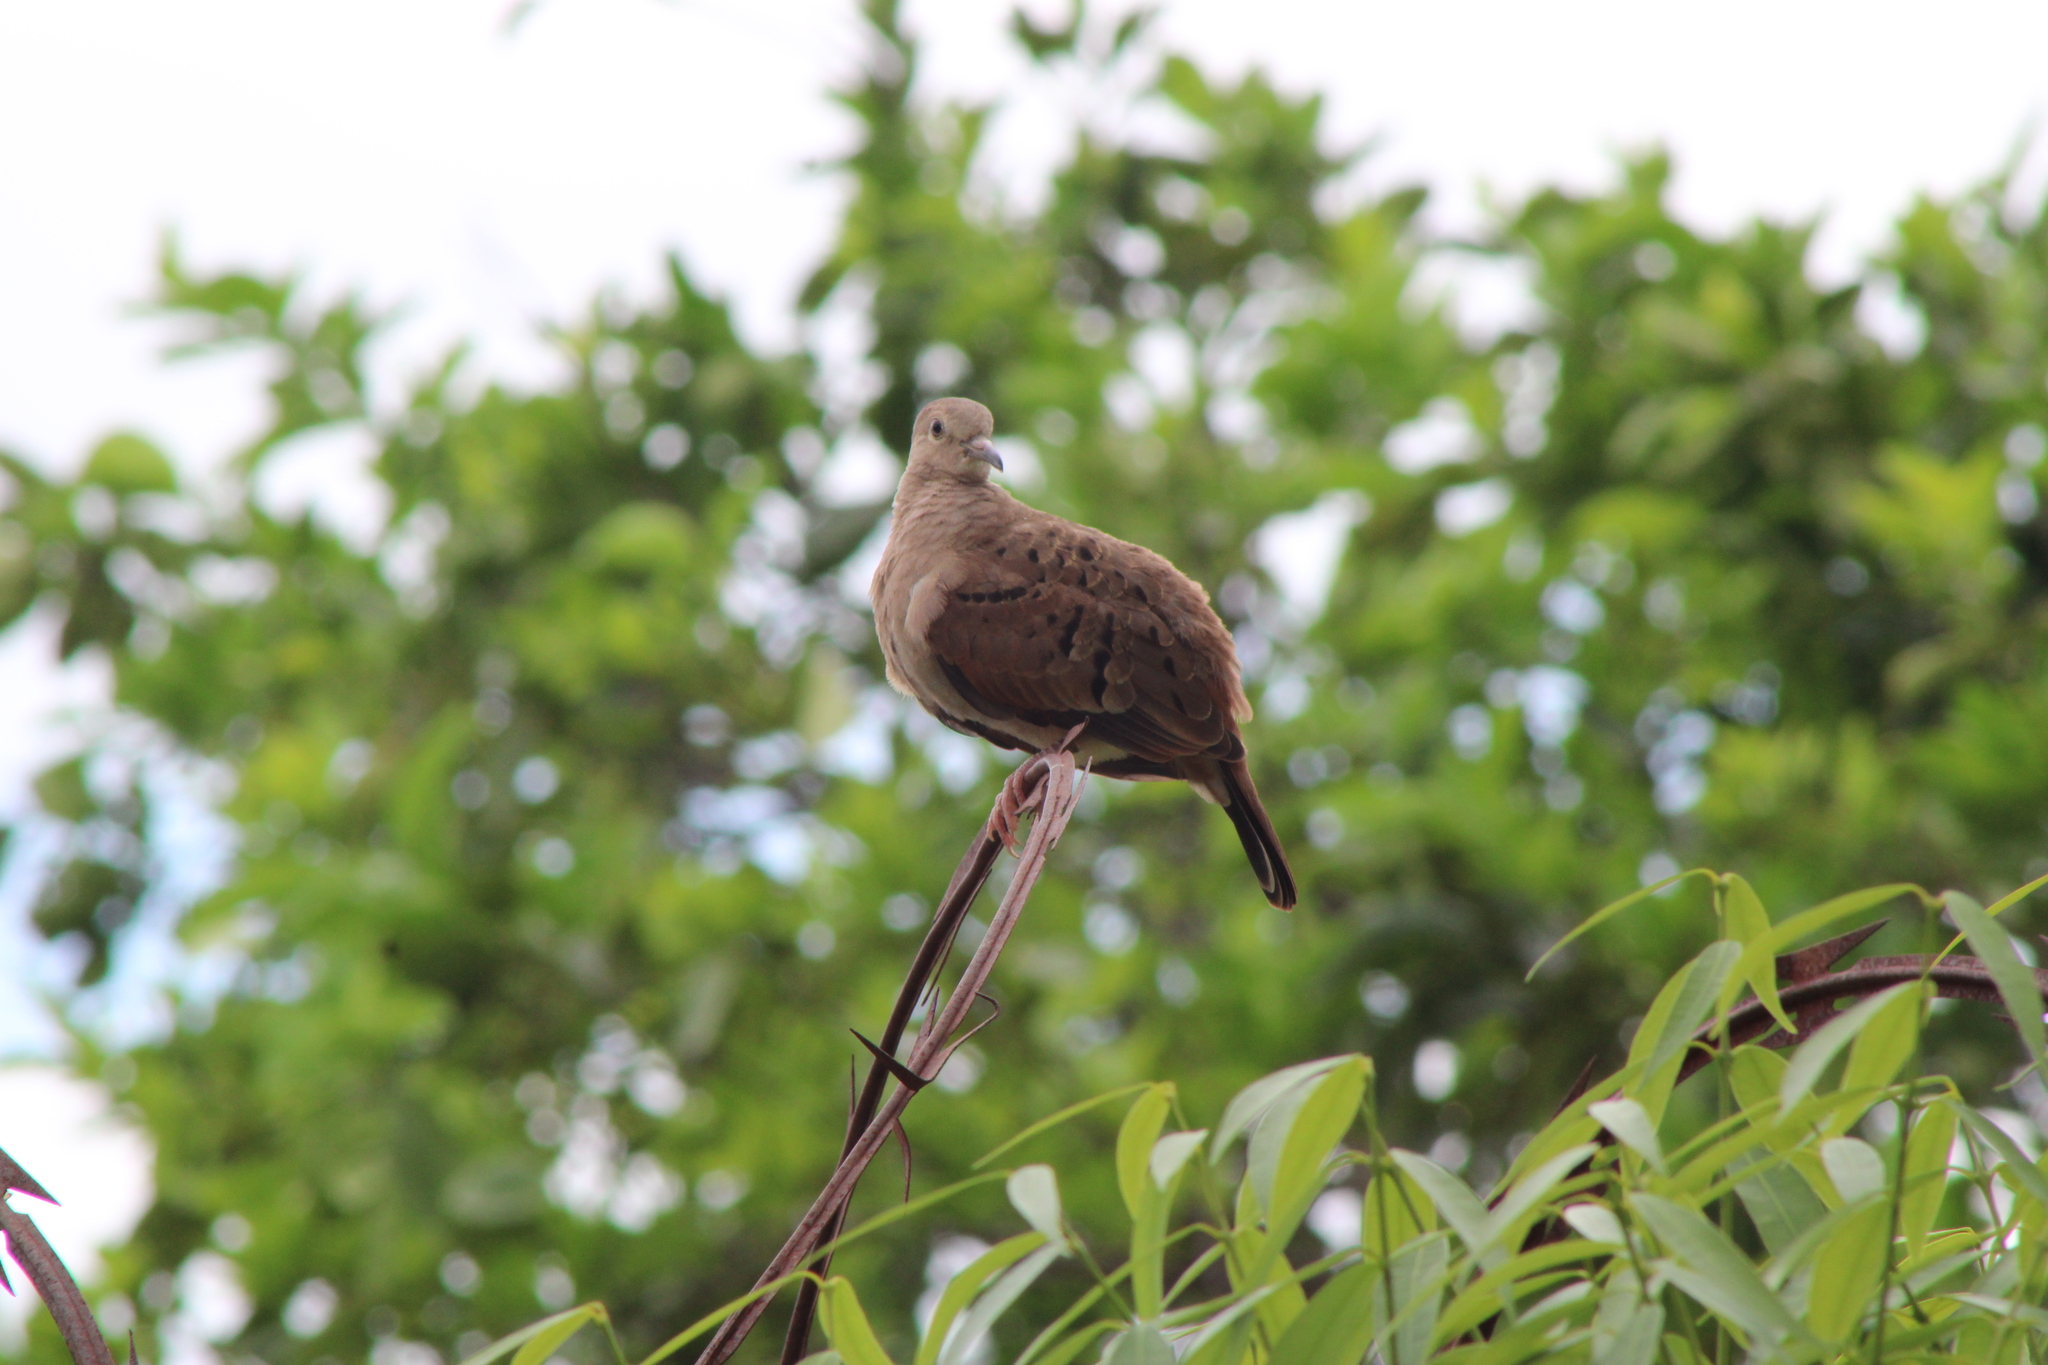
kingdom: Animalia
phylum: Chordata
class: Aves
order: Columbiformes
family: Columbidae
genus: Columbina
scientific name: Columbina talpacoti
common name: Ruddy ground dove
